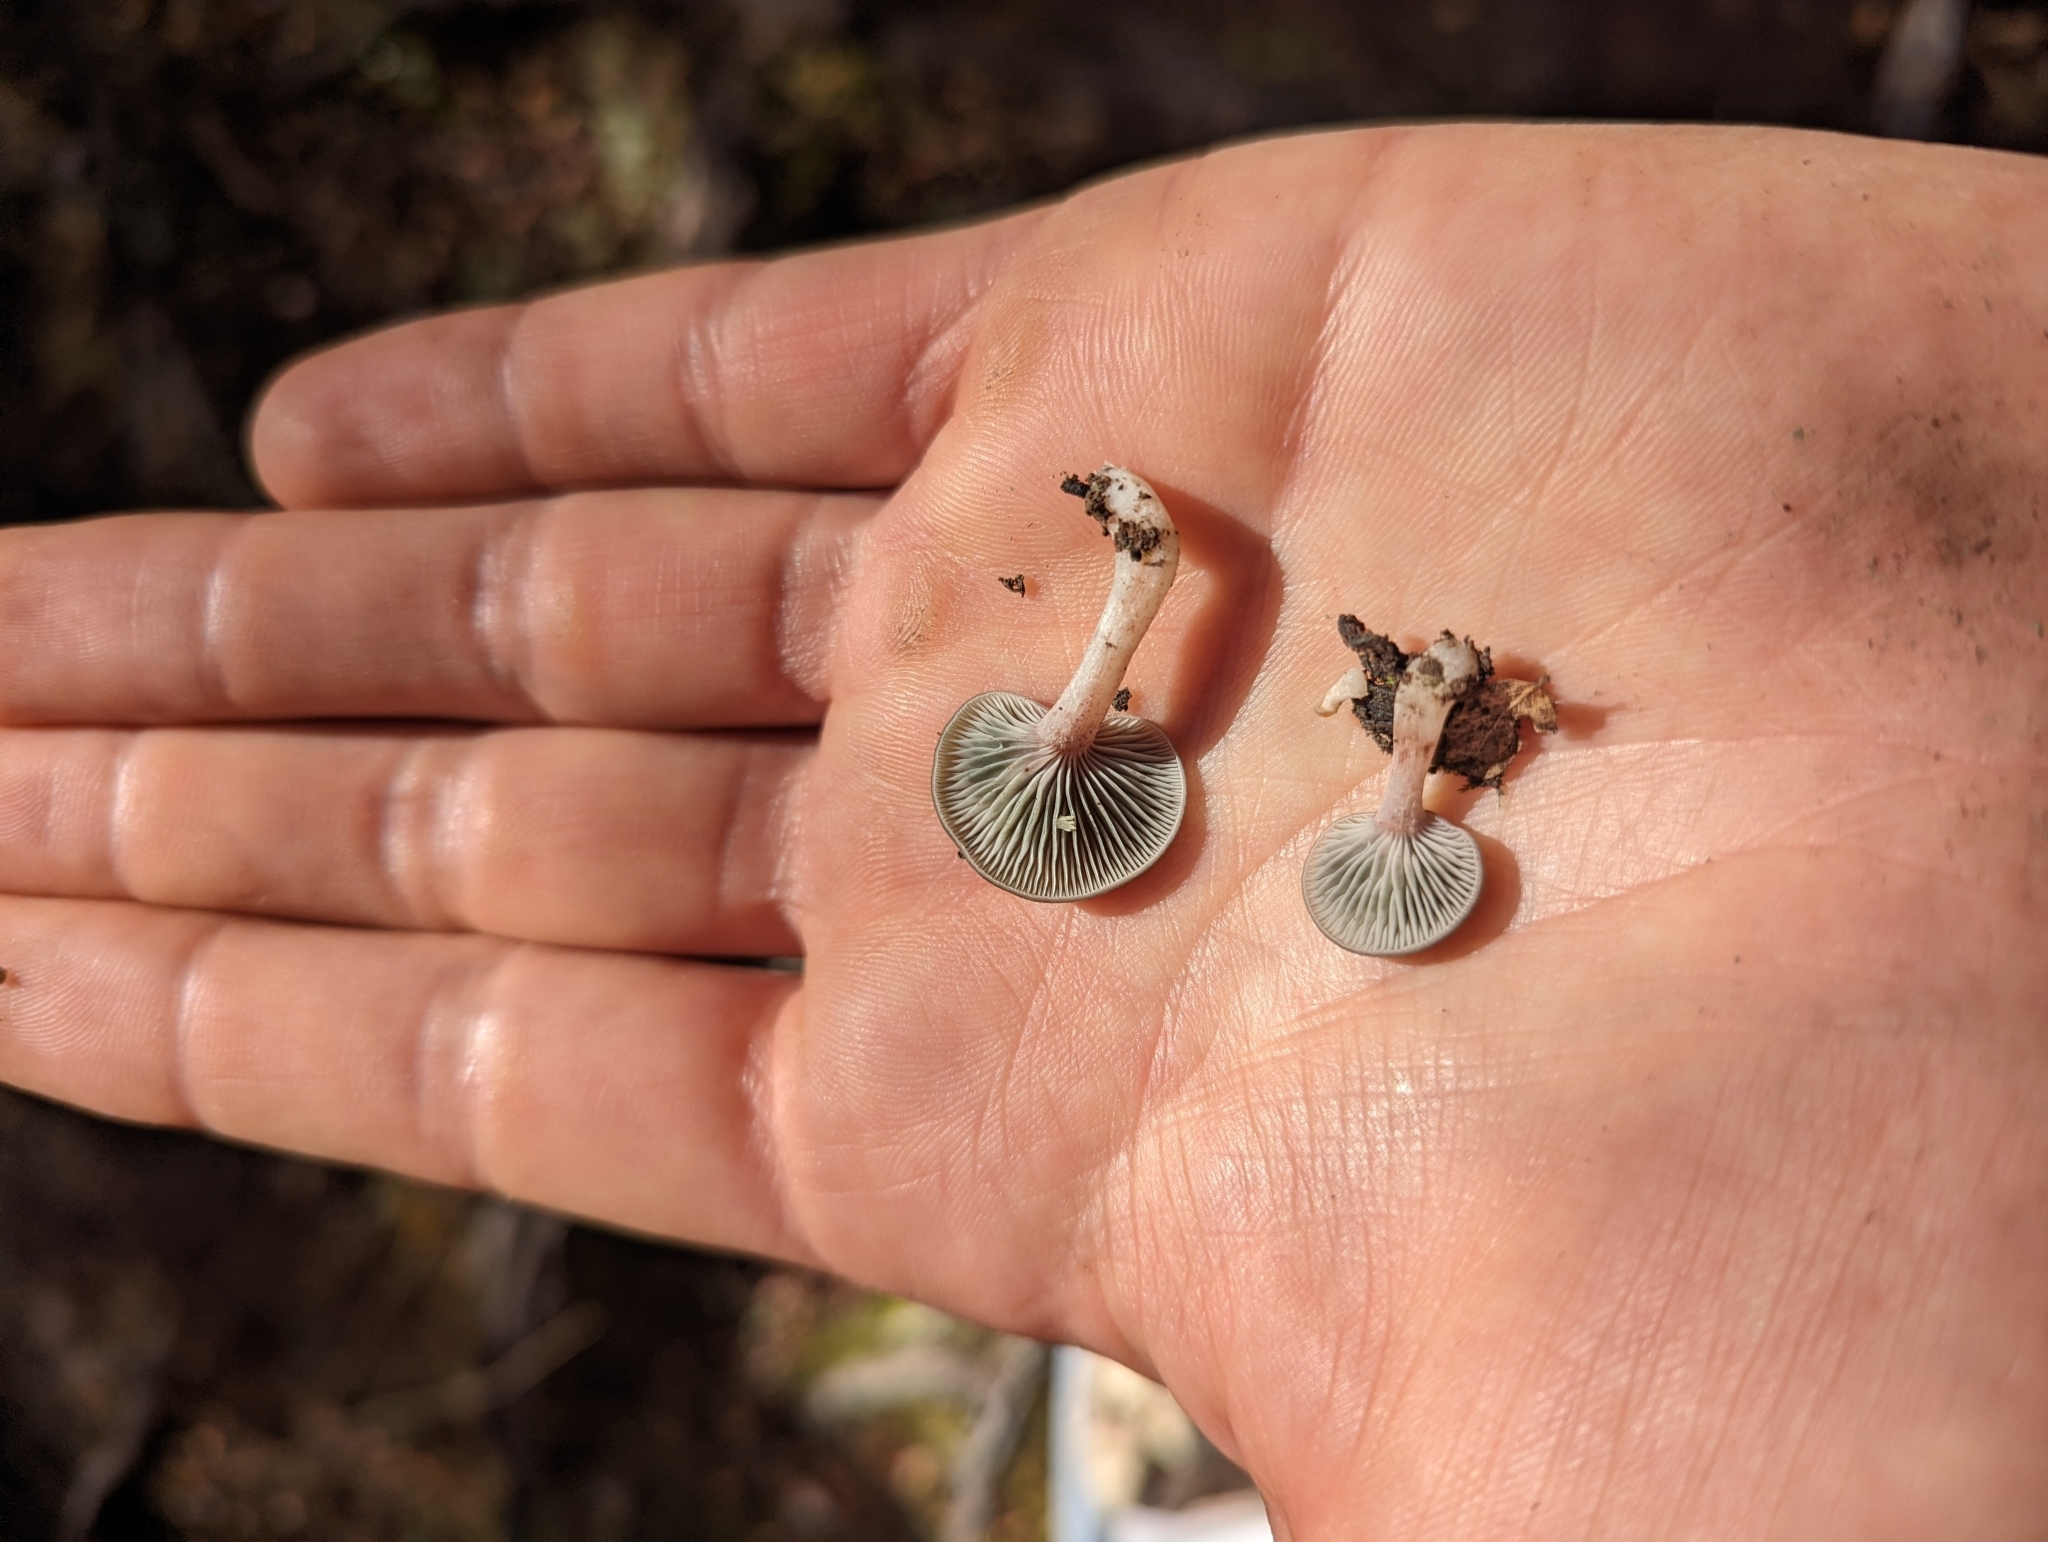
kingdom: Fungi
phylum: Basidiomycota
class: Agaricomycetes
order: Agaricales
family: Mycenaceae
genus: Panellus
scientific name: Panellus longinquus
